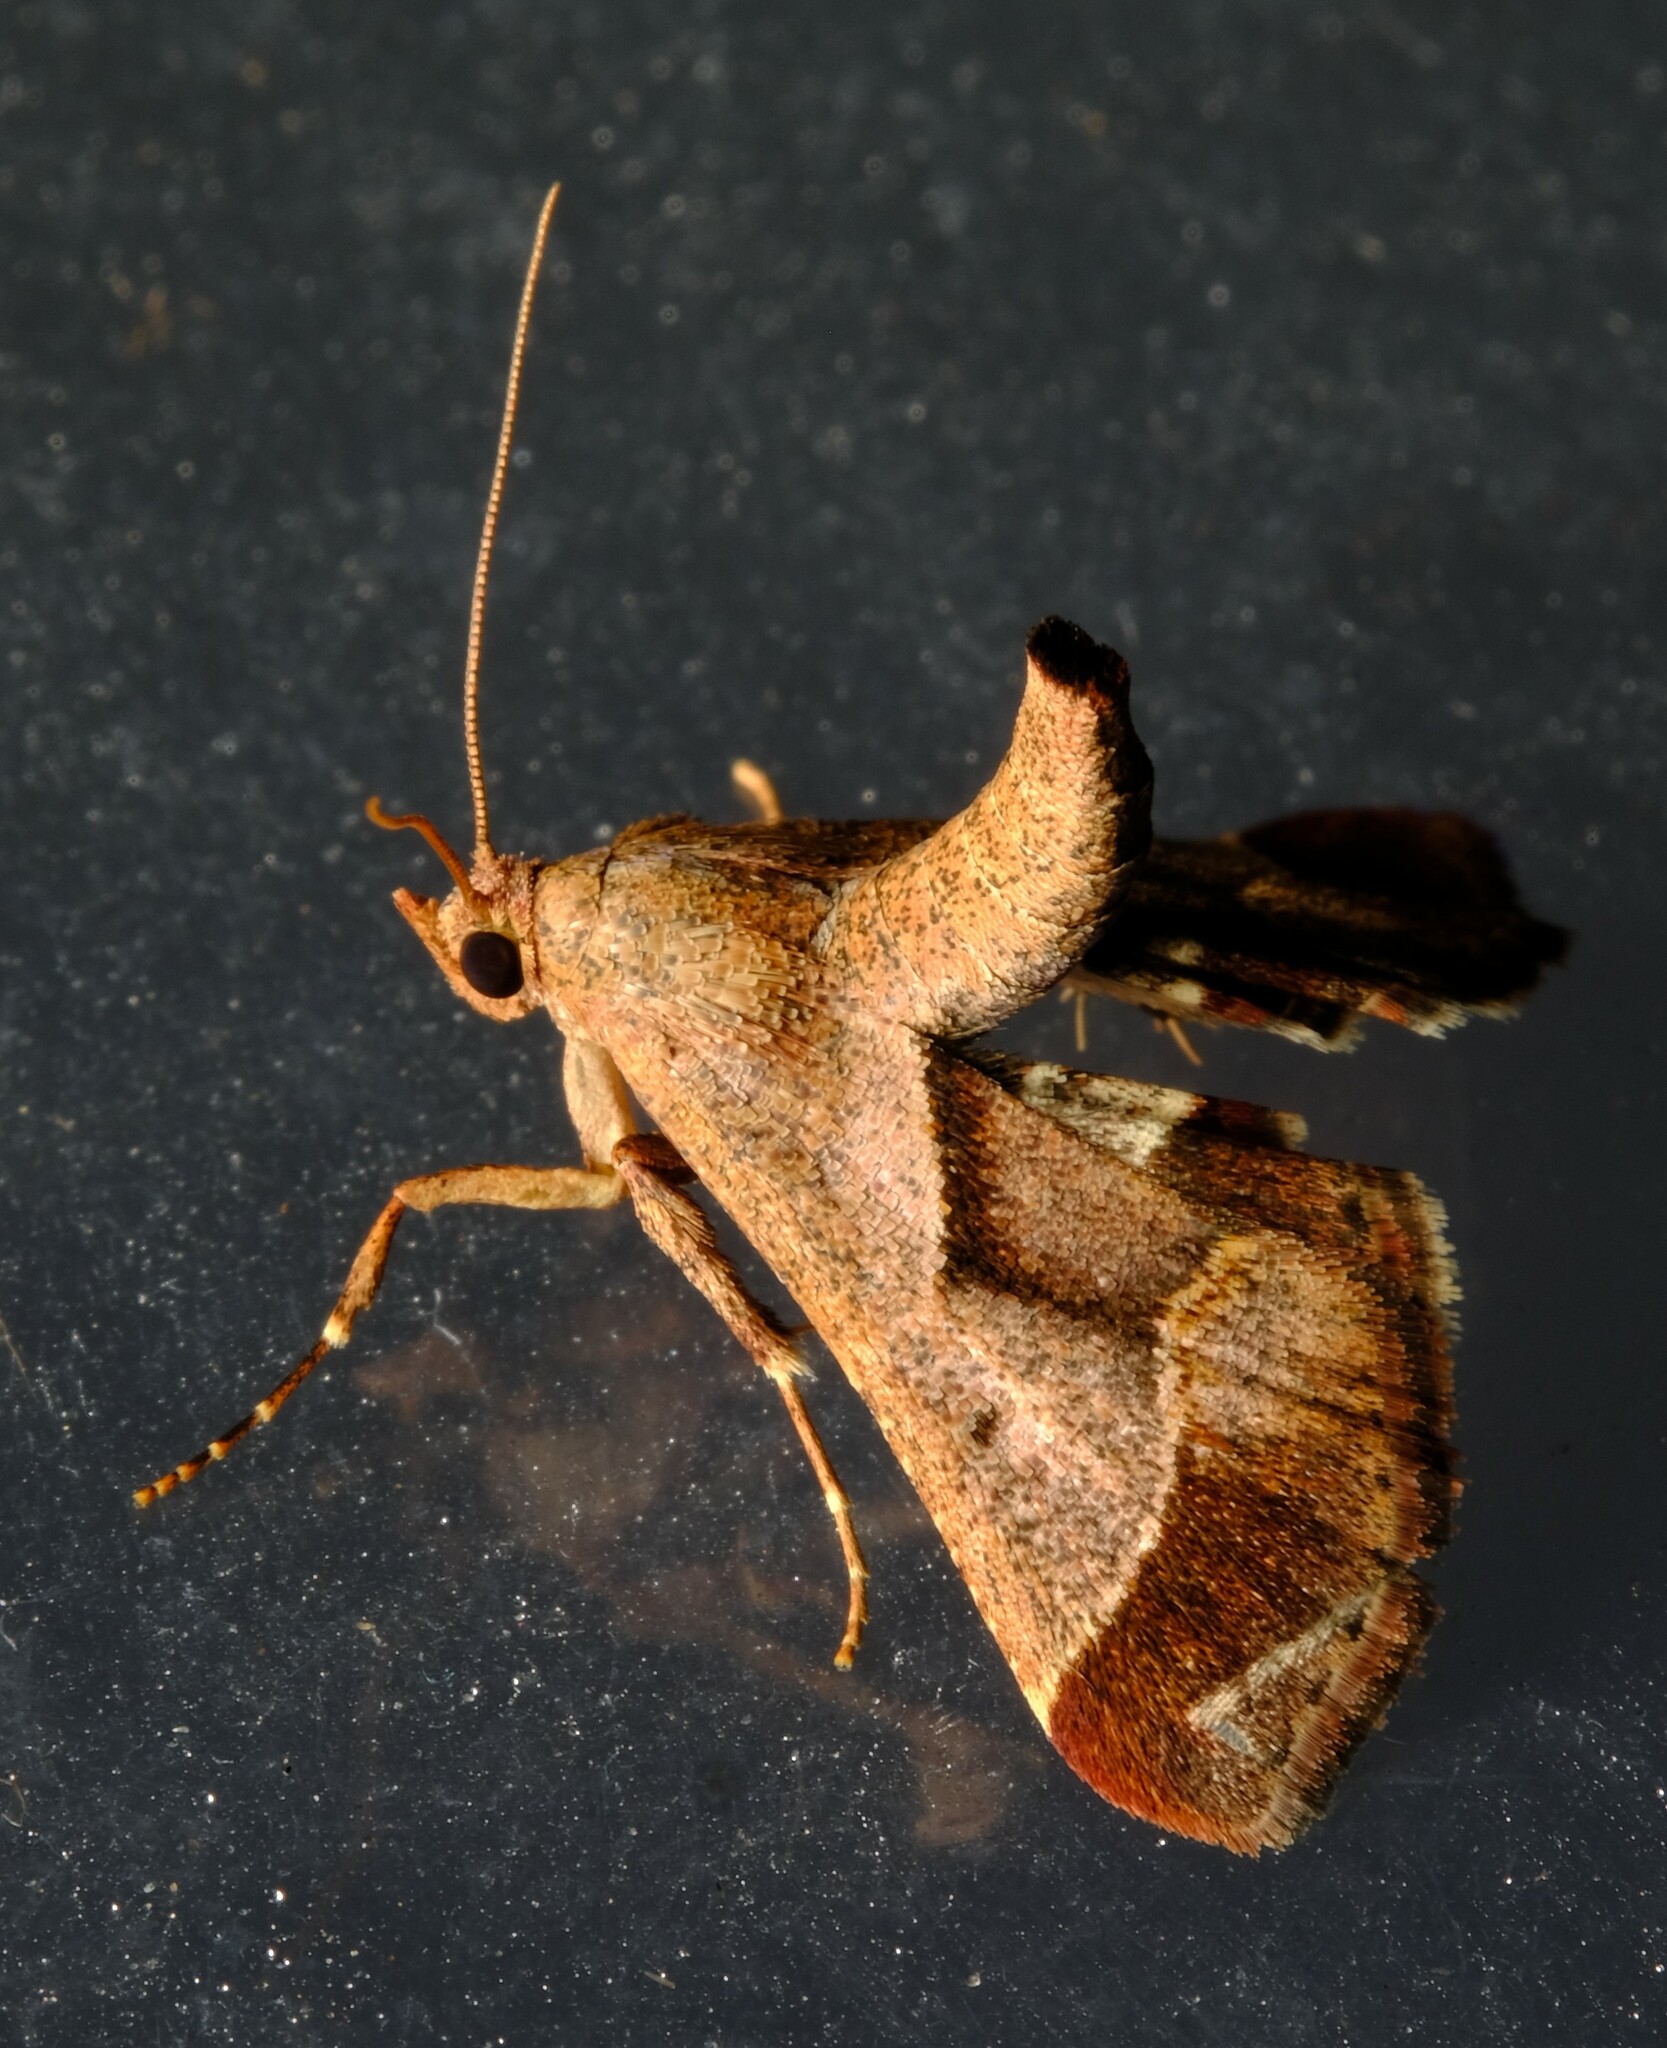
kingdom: Animalia
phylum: Arthropoda
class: Insecta
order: Lepidoptera
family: Pyralidae
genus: Gauna
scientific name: Gauna aegusalis
